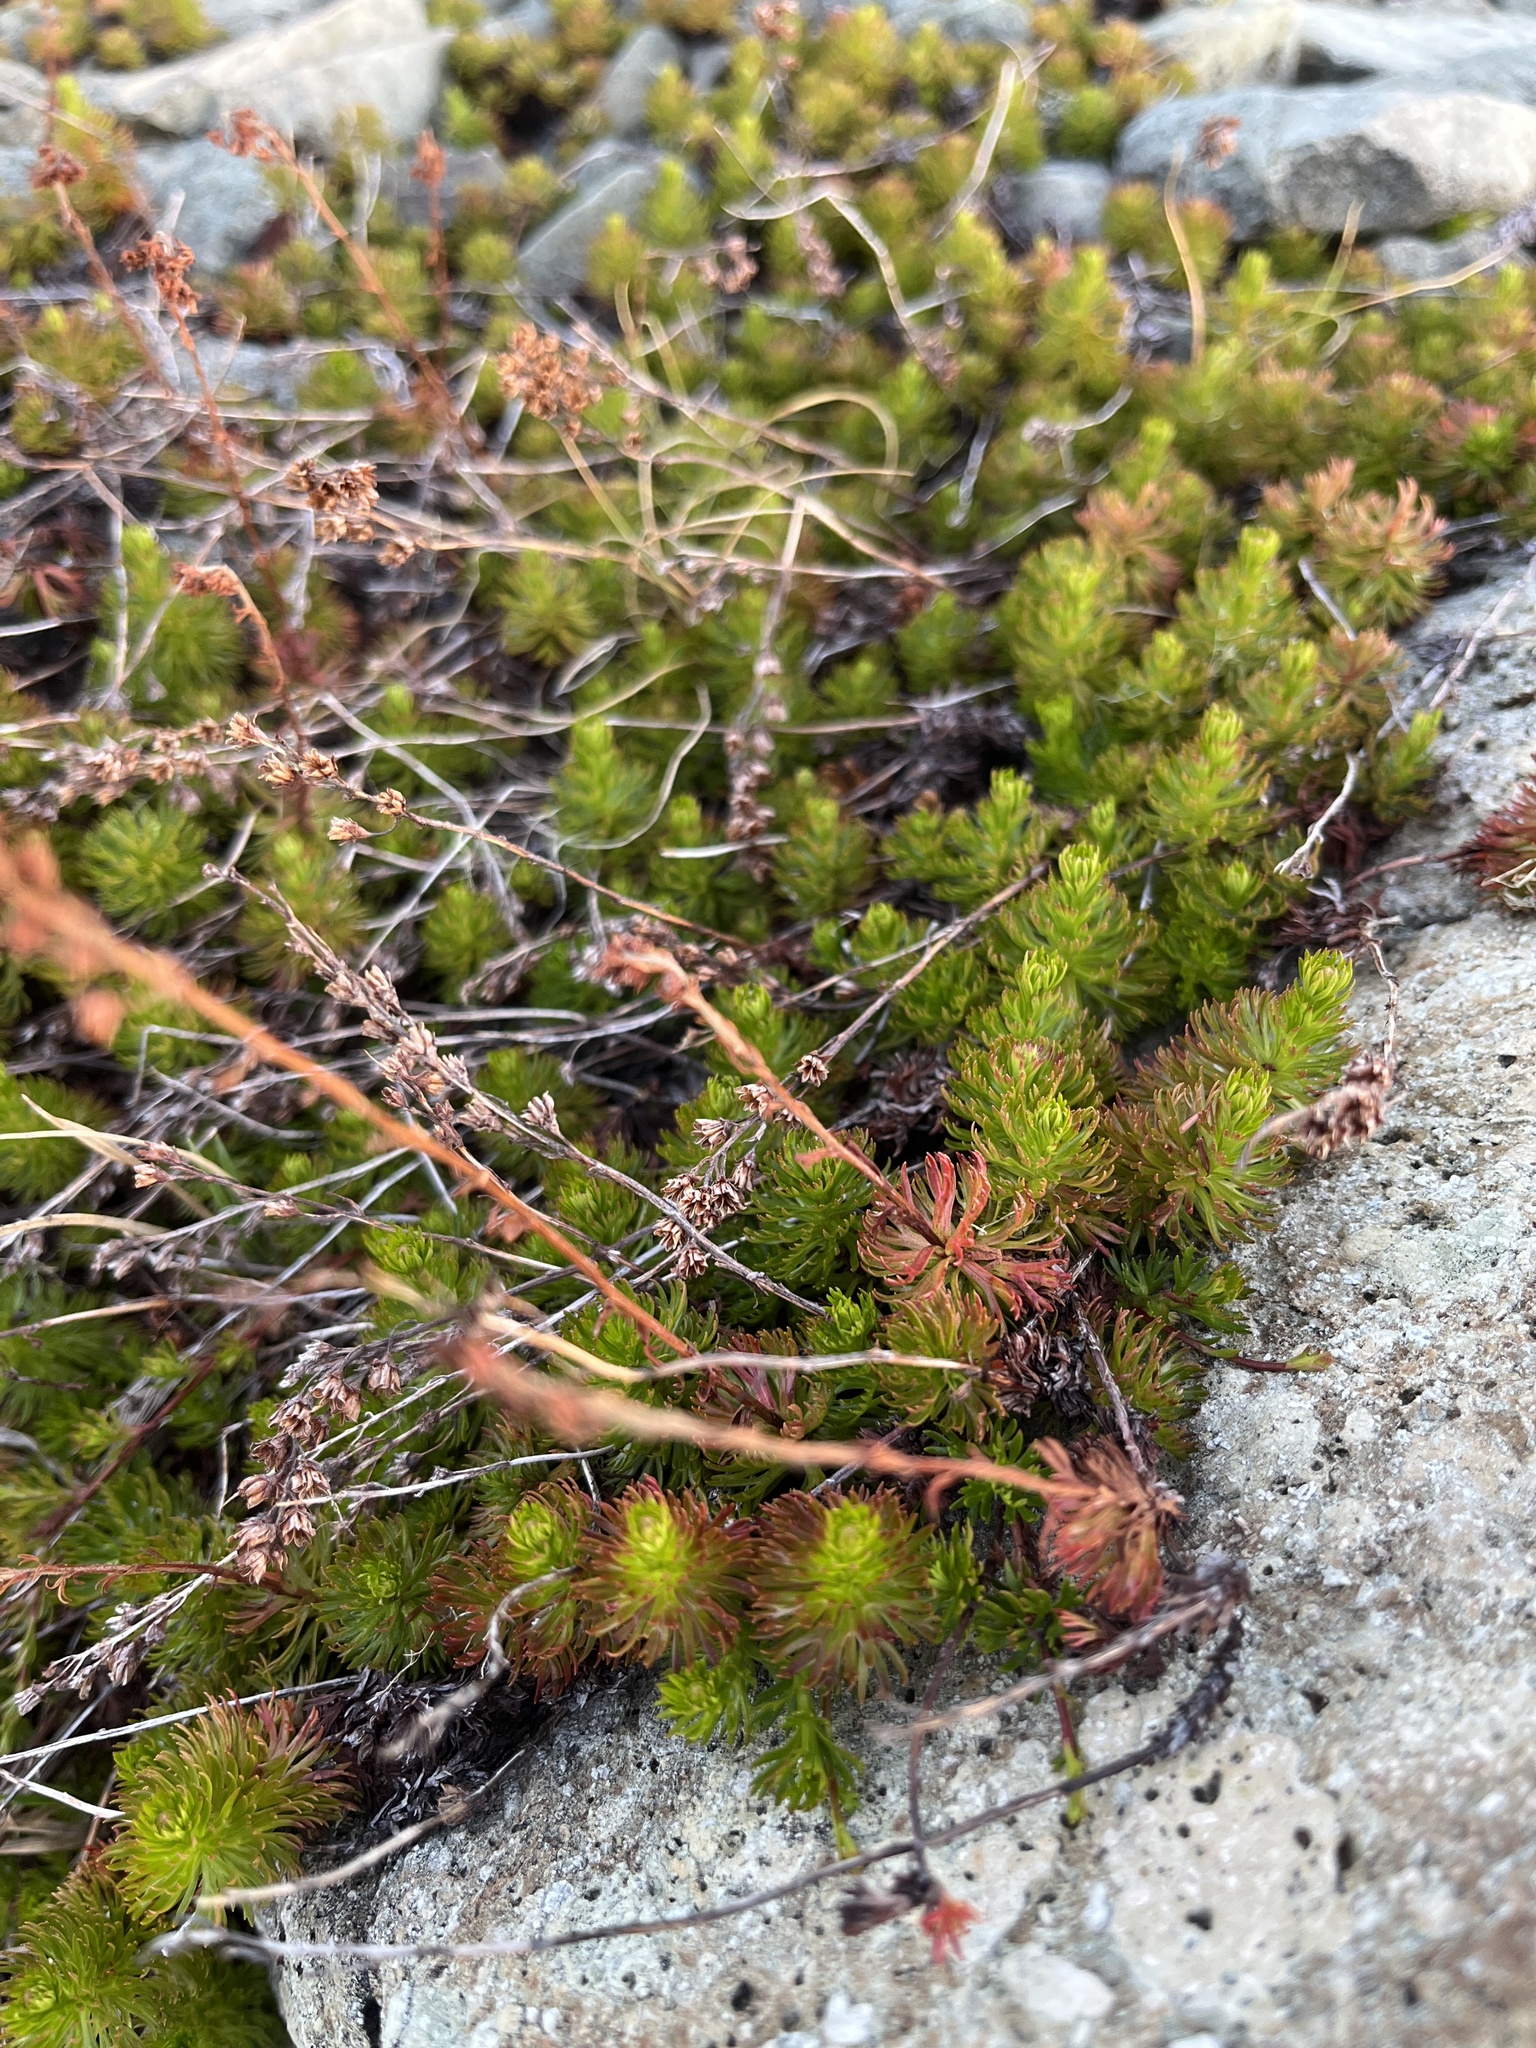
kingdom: Plantae
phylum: Tracheophyta
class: Magnoliopsida
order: Rosales
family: Rosaceae
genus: Luetkea
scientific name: Luetkea pectinata
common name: Partridgefoot
